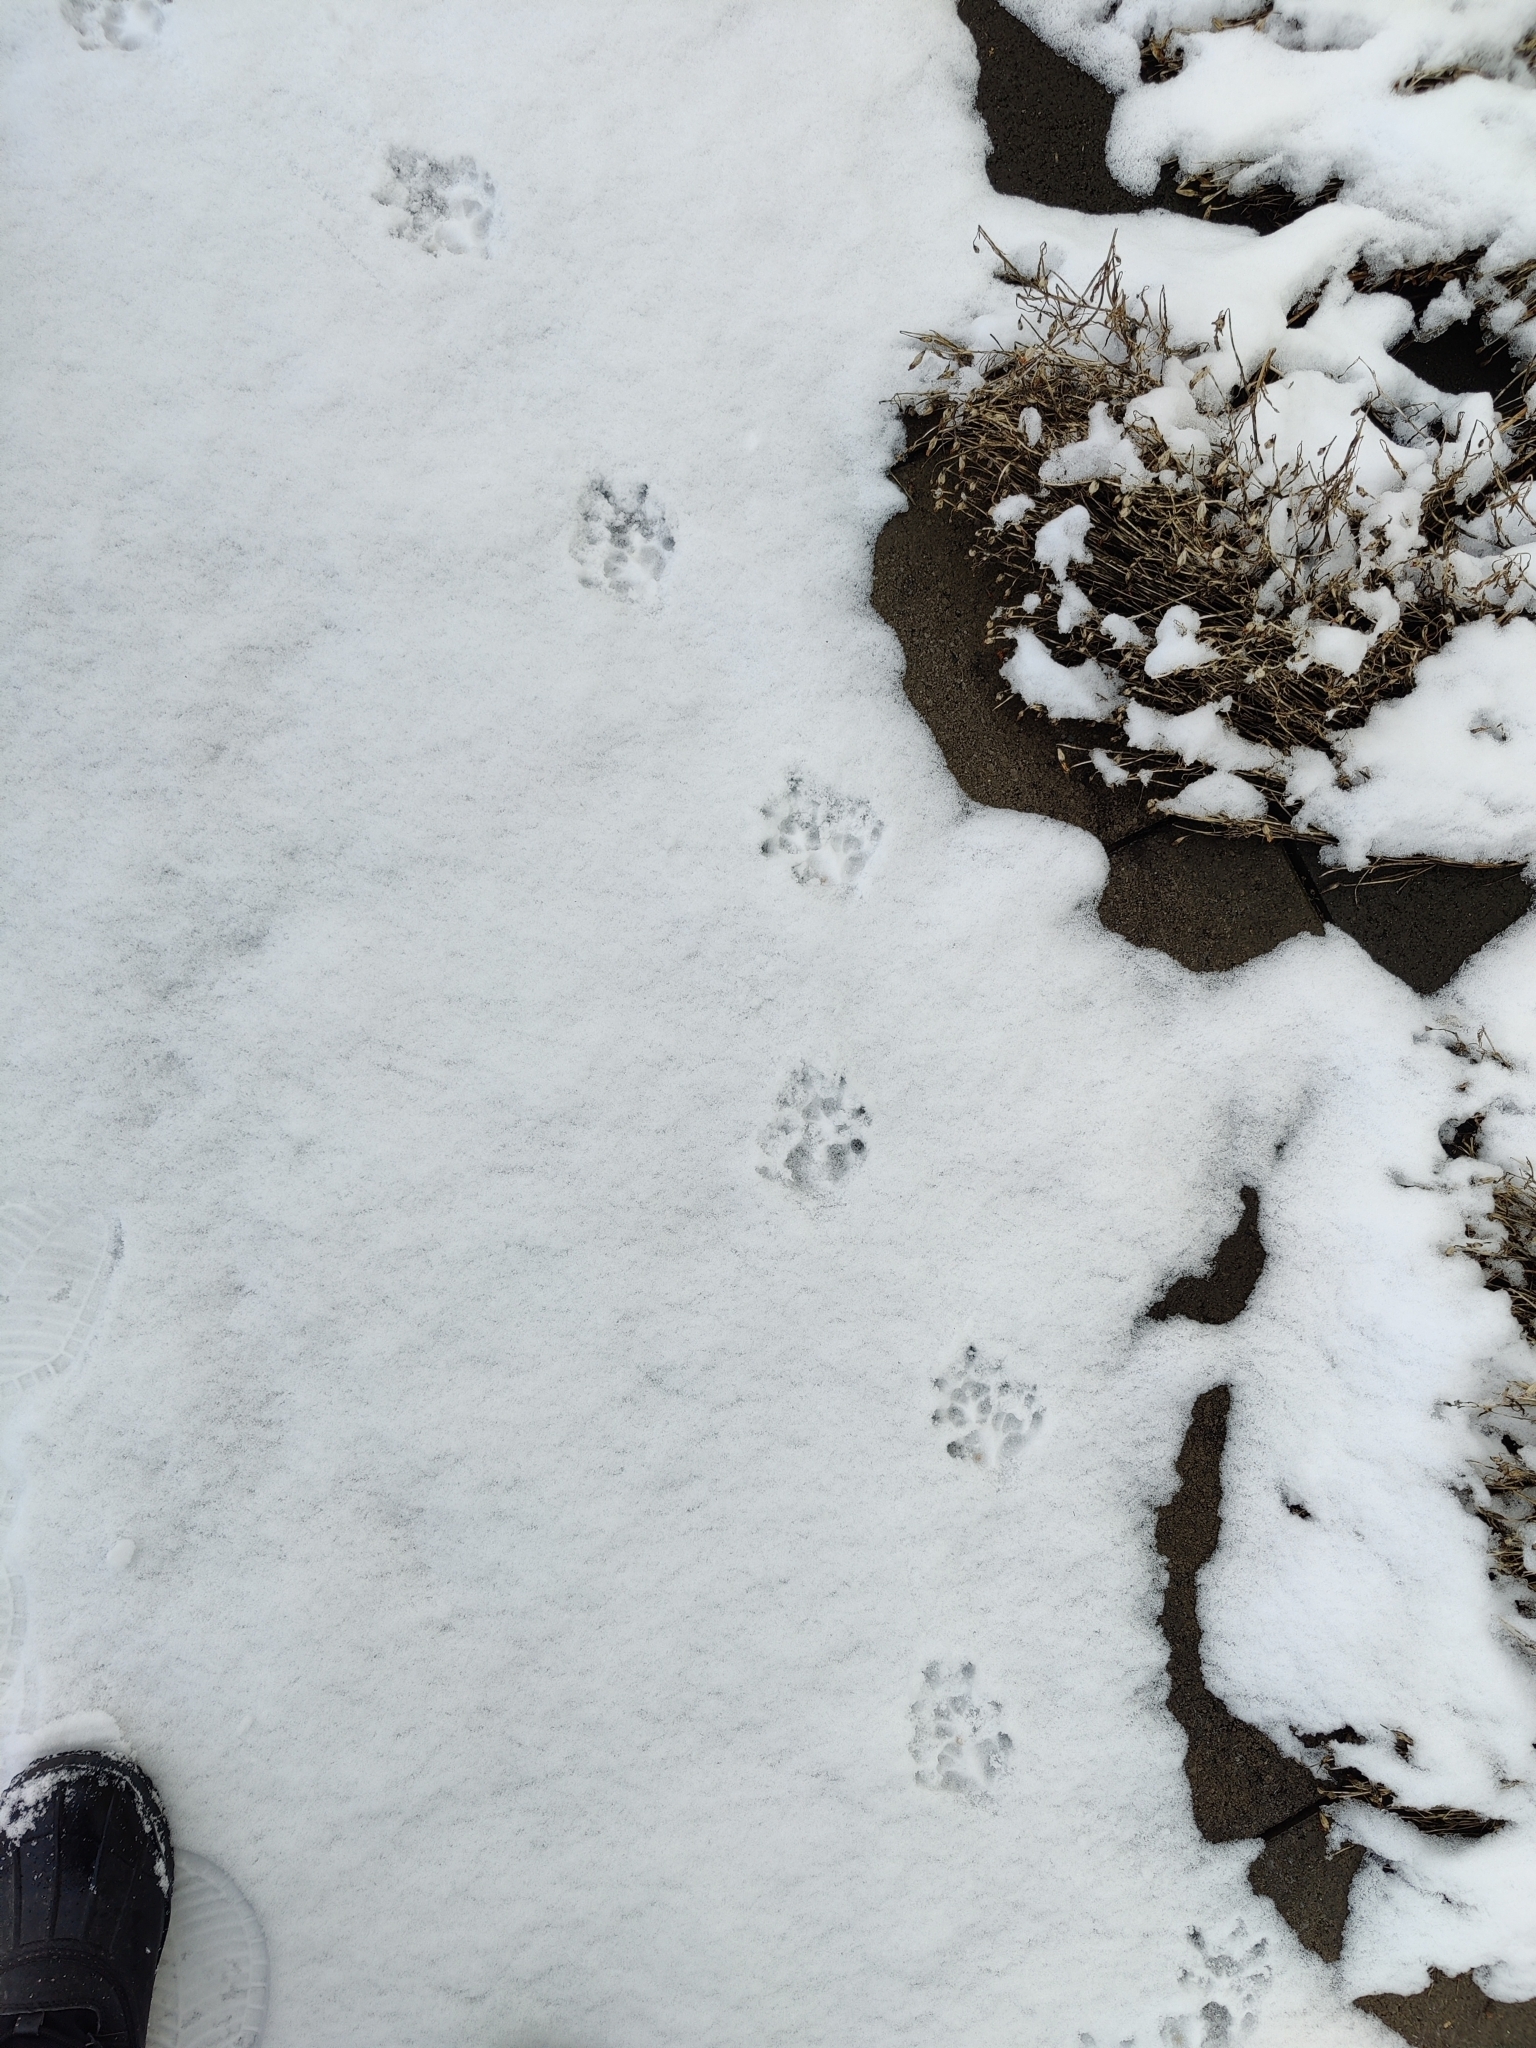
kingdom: Animalia
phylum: Chordata
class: Mammalia
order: Didelphimorphia
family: Didelphidae
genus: Didelphis
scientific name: Didelphis virginiana
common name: Virginia opossum
